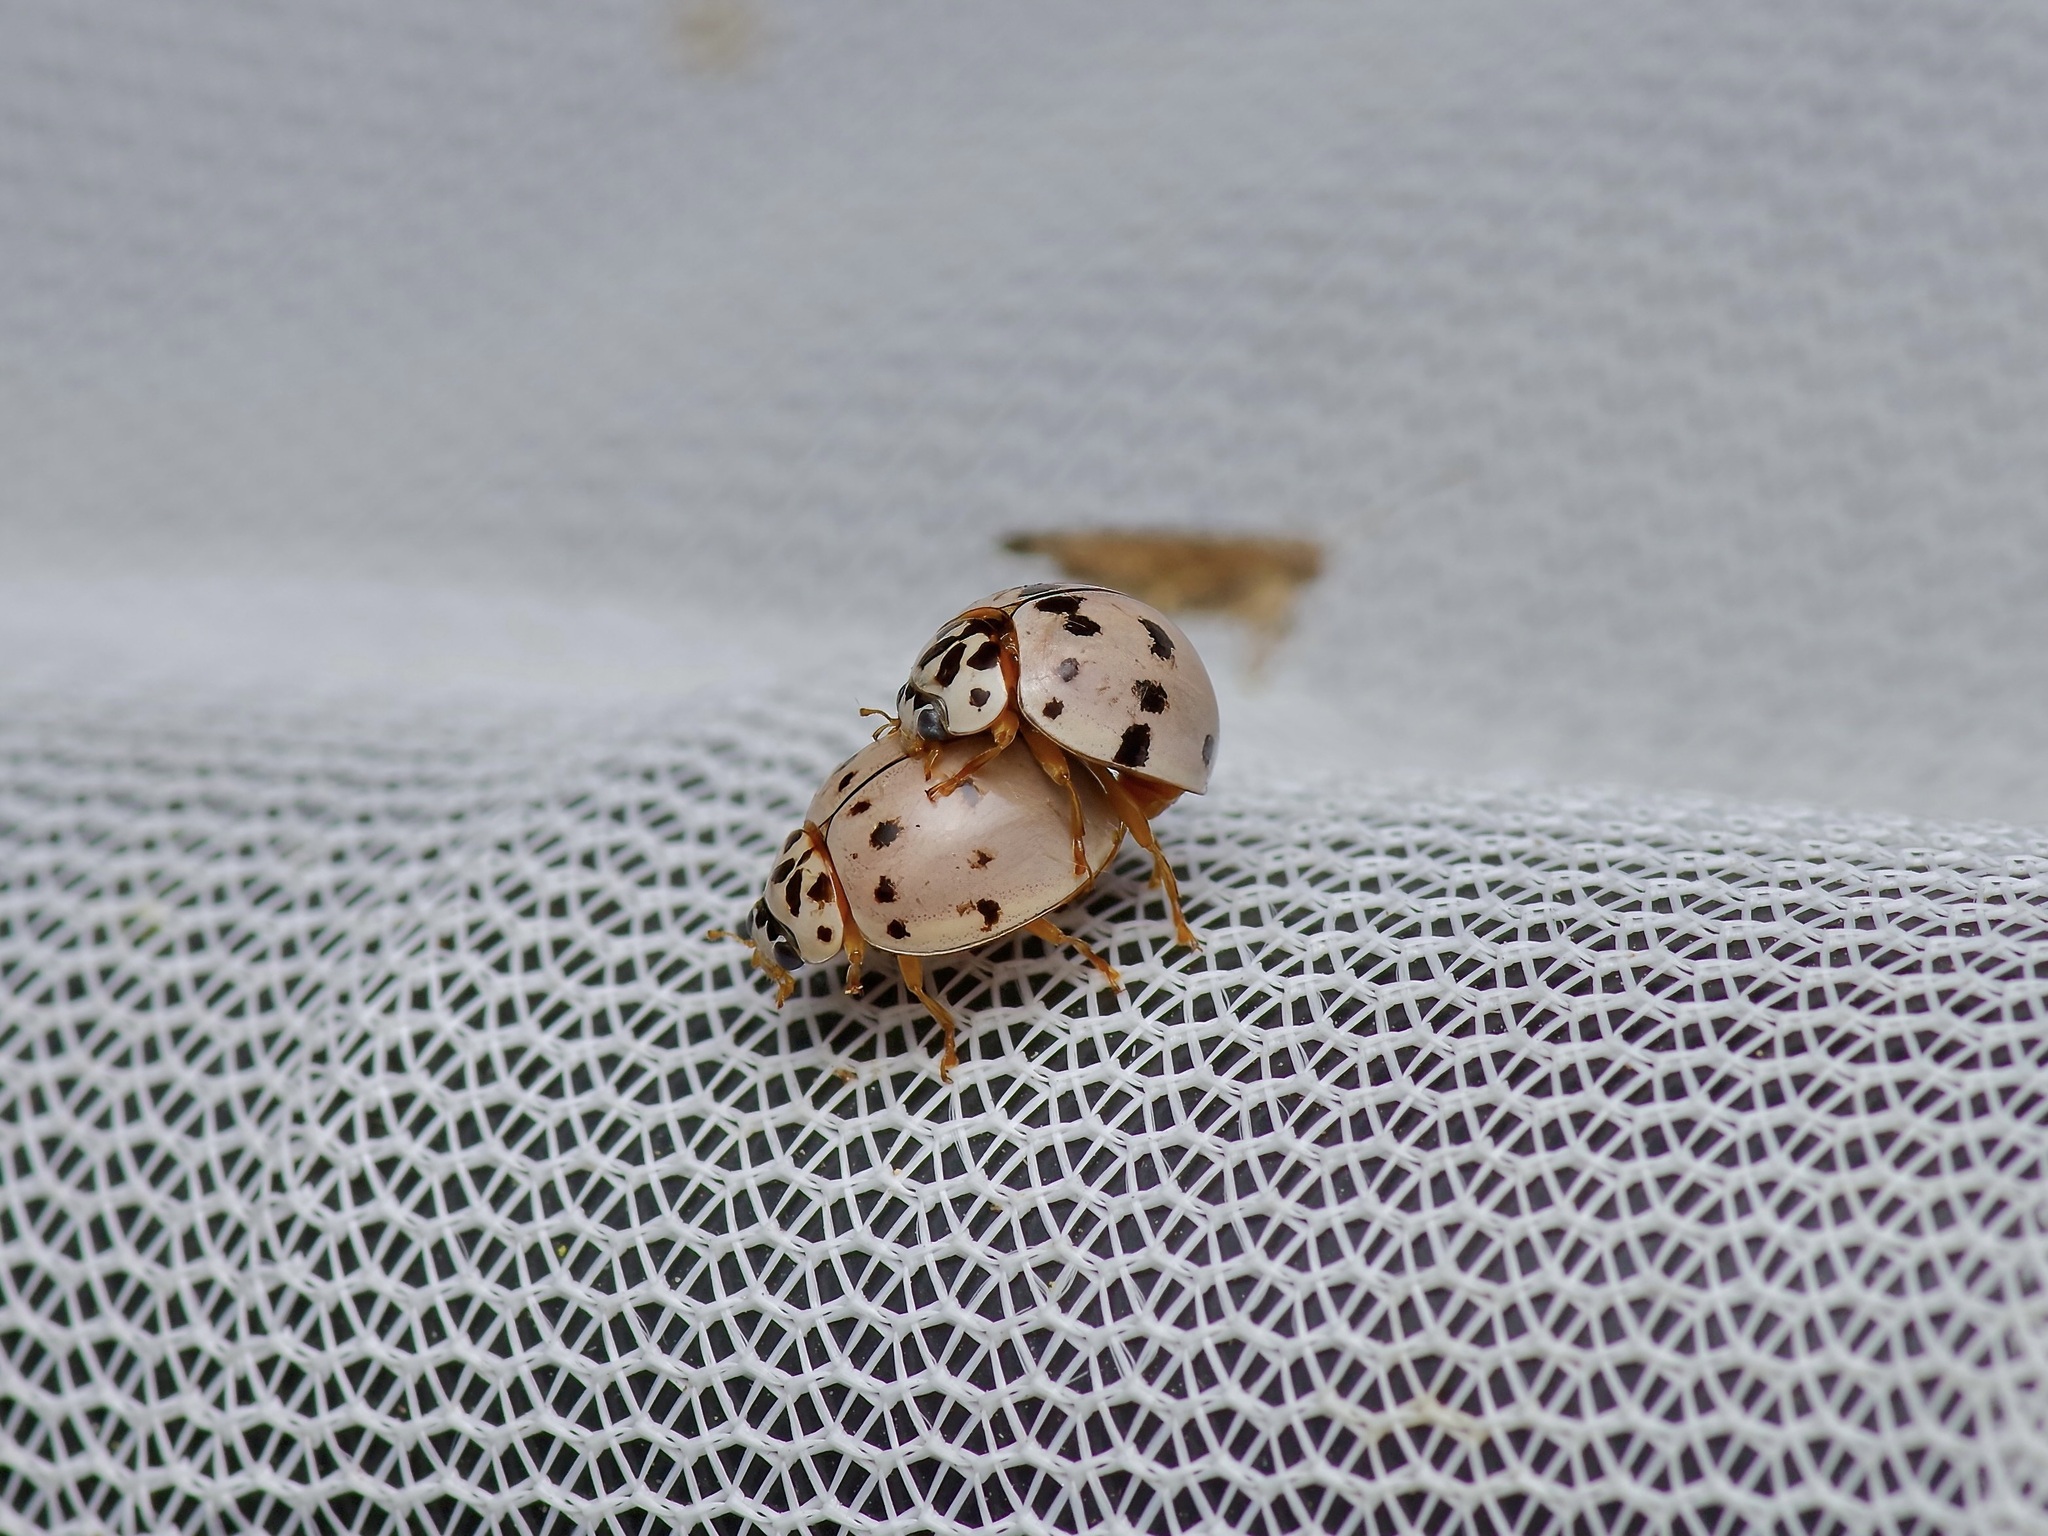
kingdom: Animalia
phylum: Arthropoda
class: Insecta
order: Coleoptera
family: Coccinellidae
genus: Olla
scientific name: Olla v-nigrum
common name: Ashy gray lady beetle
